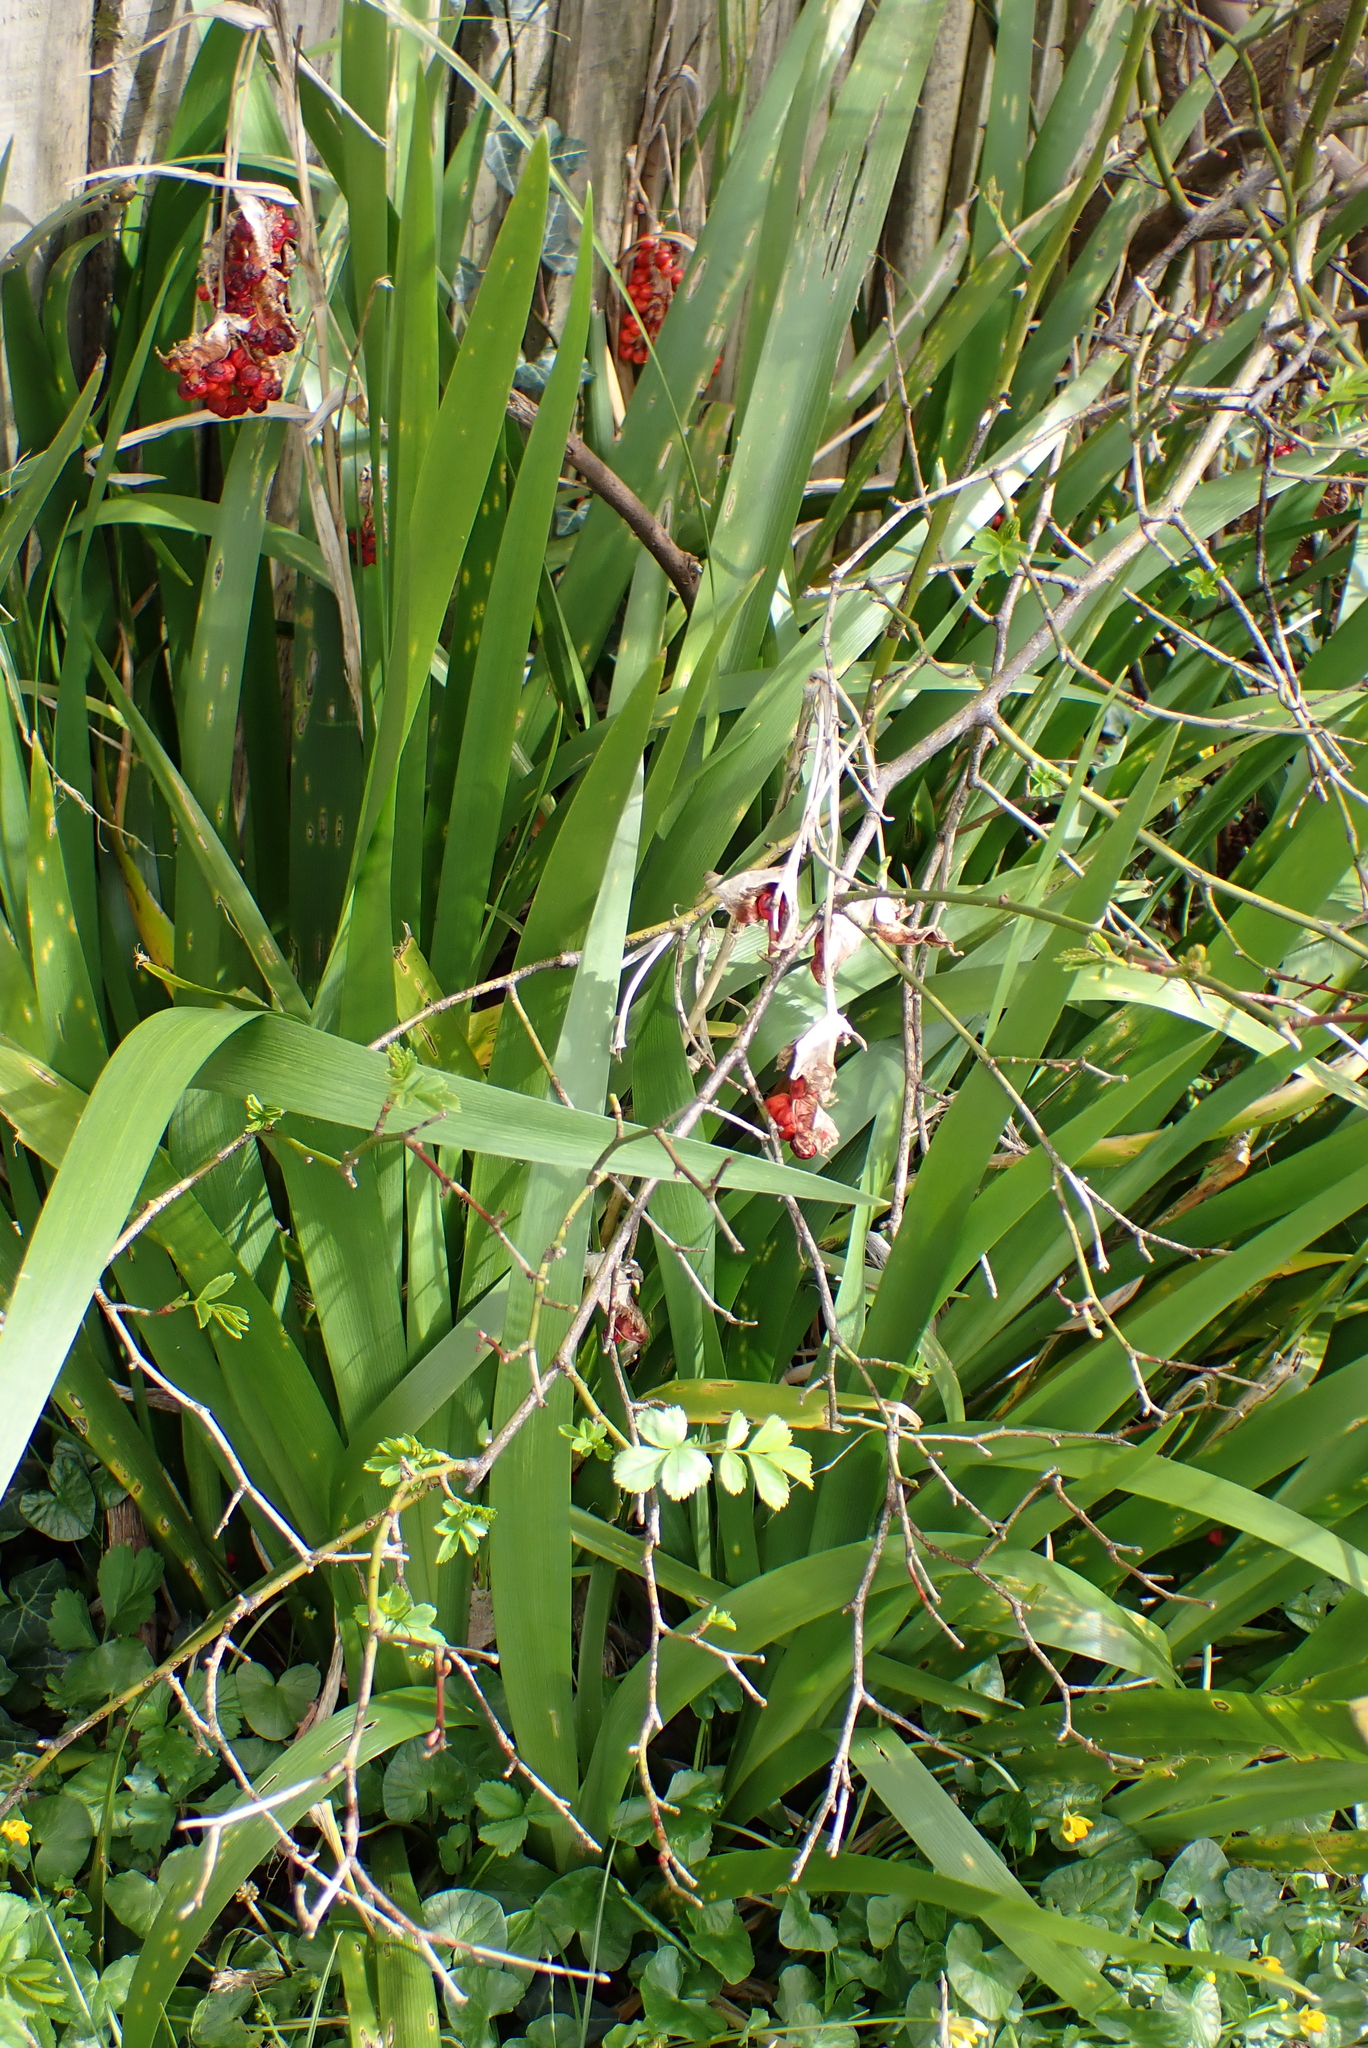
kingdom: Plantae
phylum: Tracheophyta
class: Liliopsida
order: Asparagales
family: Iridaceae
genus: Iris
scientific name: Iris foetidissima
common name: Stinking iris
